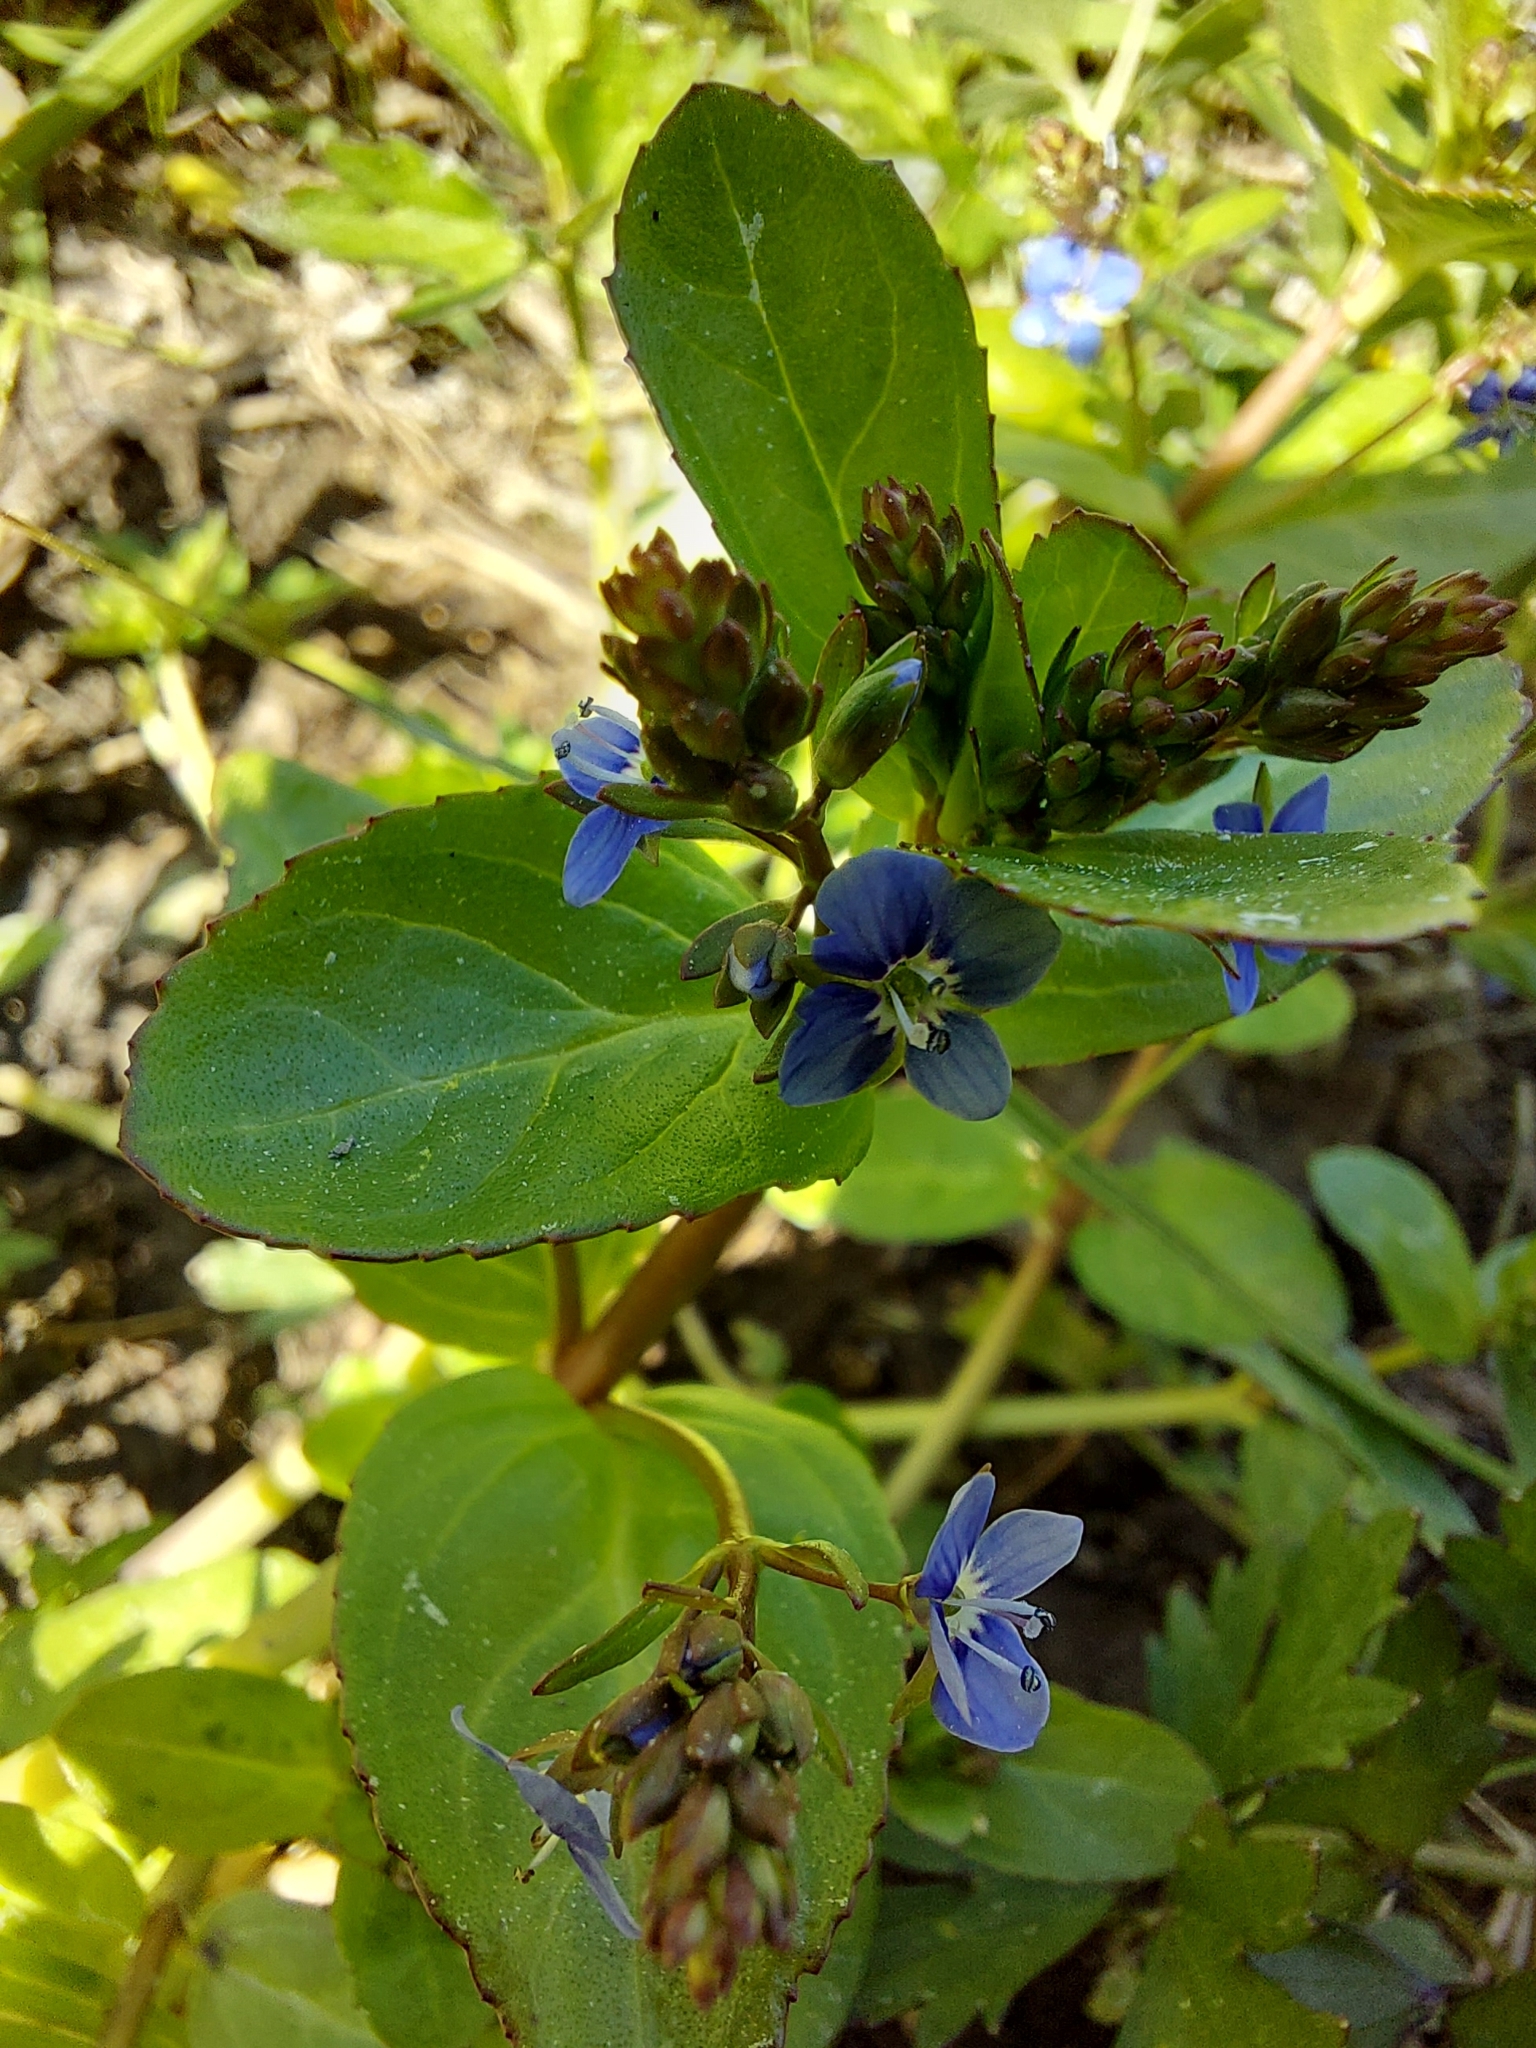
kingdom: Plantae
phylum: Tracheophyta
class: Magnoliopsida
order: Lamiales
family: Plantaginaceae
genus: Veronica
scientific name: Veronica beccabunga
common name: Brooklime
